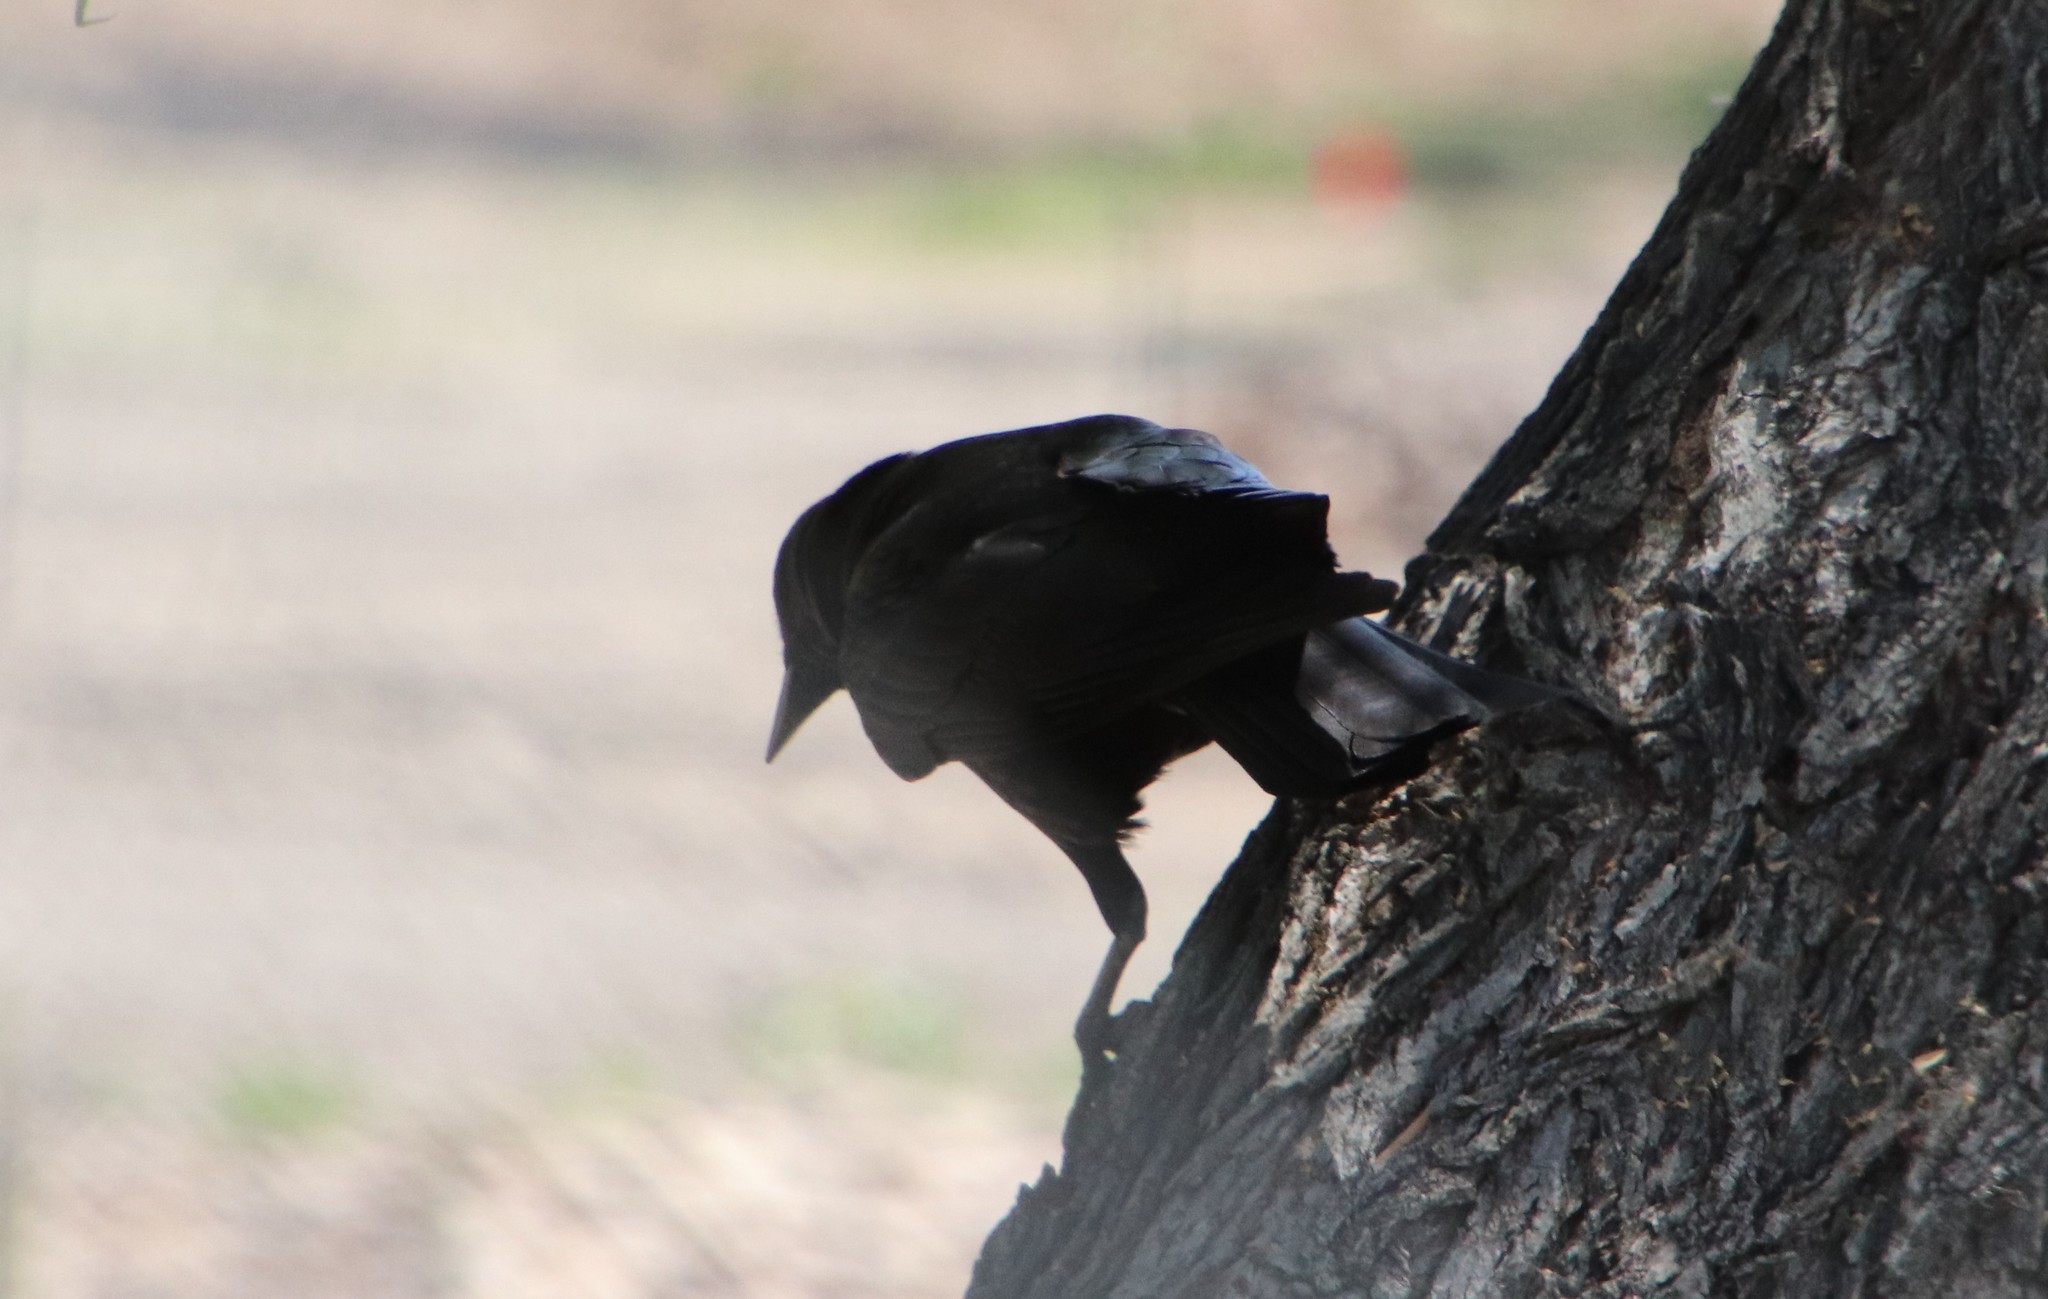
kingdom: Animalia
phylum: Chordata
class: Aves
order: Passeriformes
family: Corvidae
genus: Corvus
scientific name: Corvus brachyrhynchos
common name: American crow
